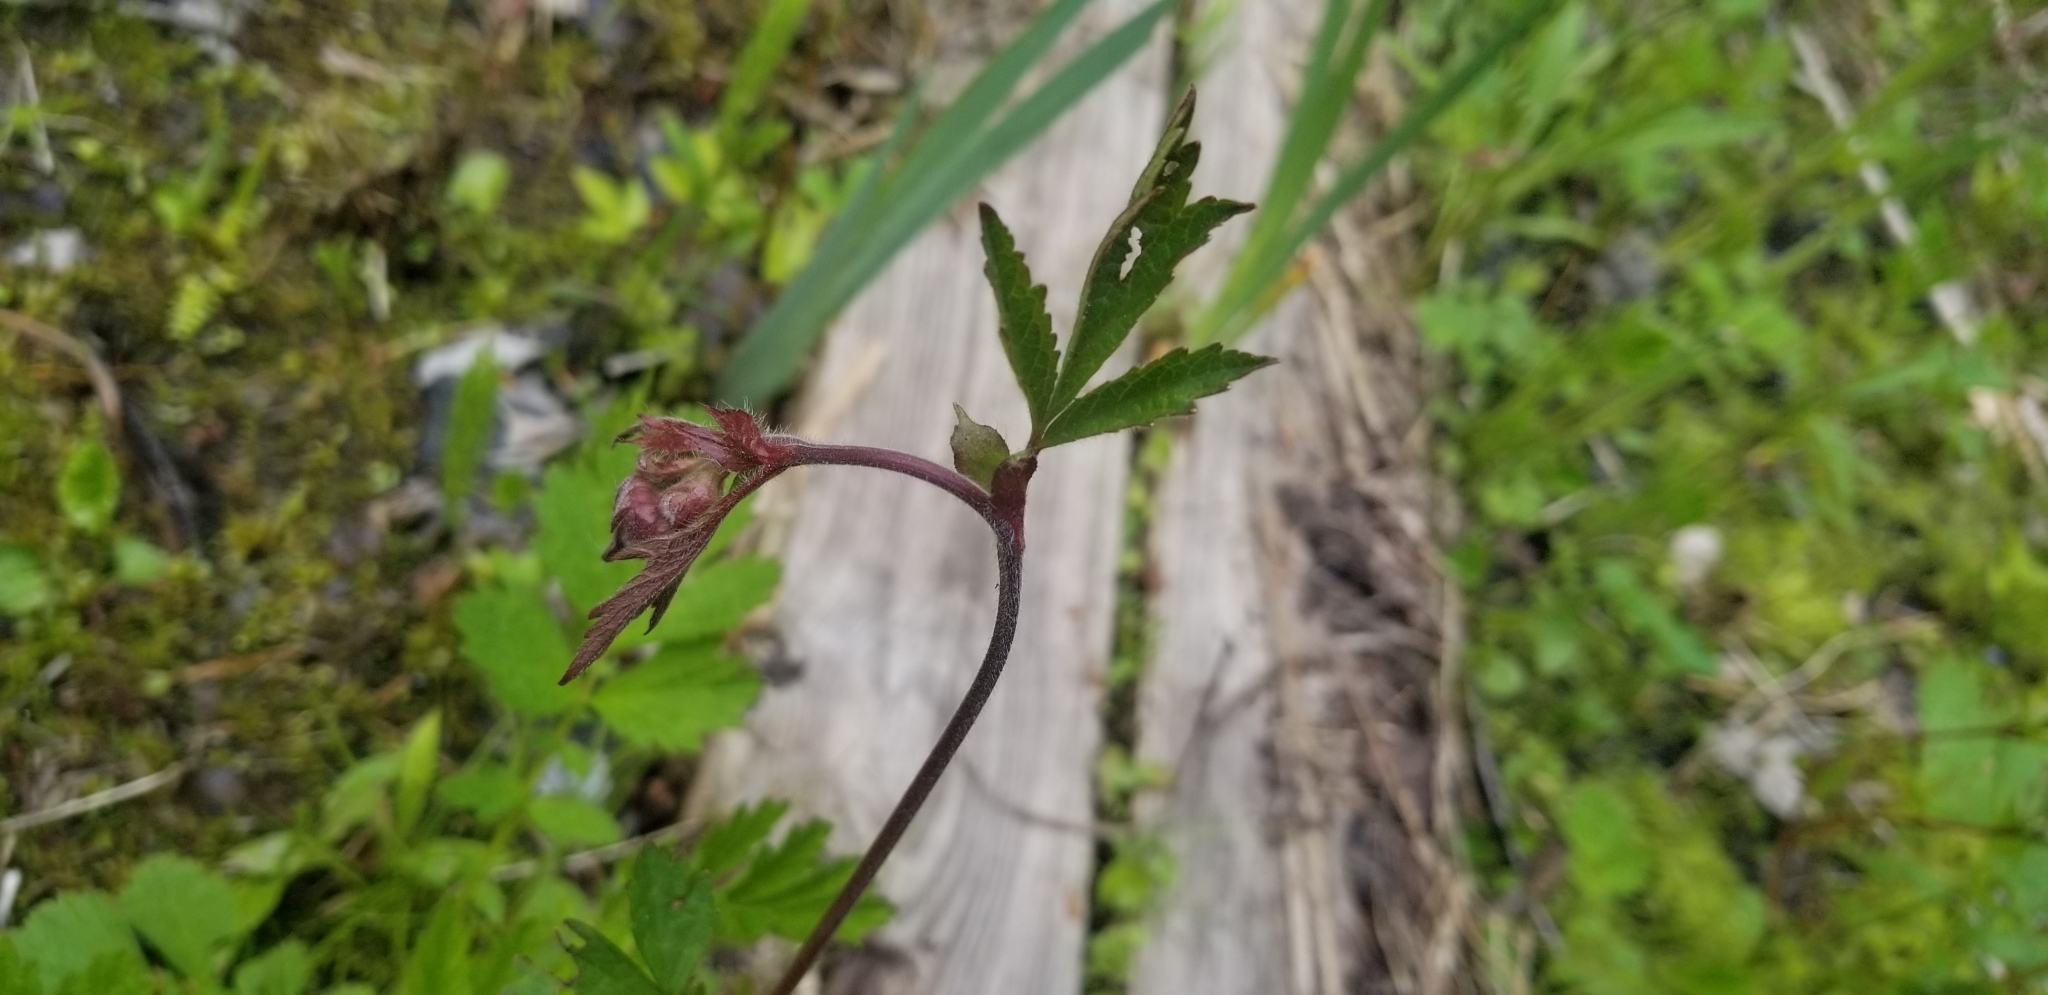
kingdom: Plantae
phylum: Tracheophyta
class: Magnoliopsida
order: Rosales
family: Rosaceae
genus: Geum
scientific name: Geum rivale
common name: Water avens
